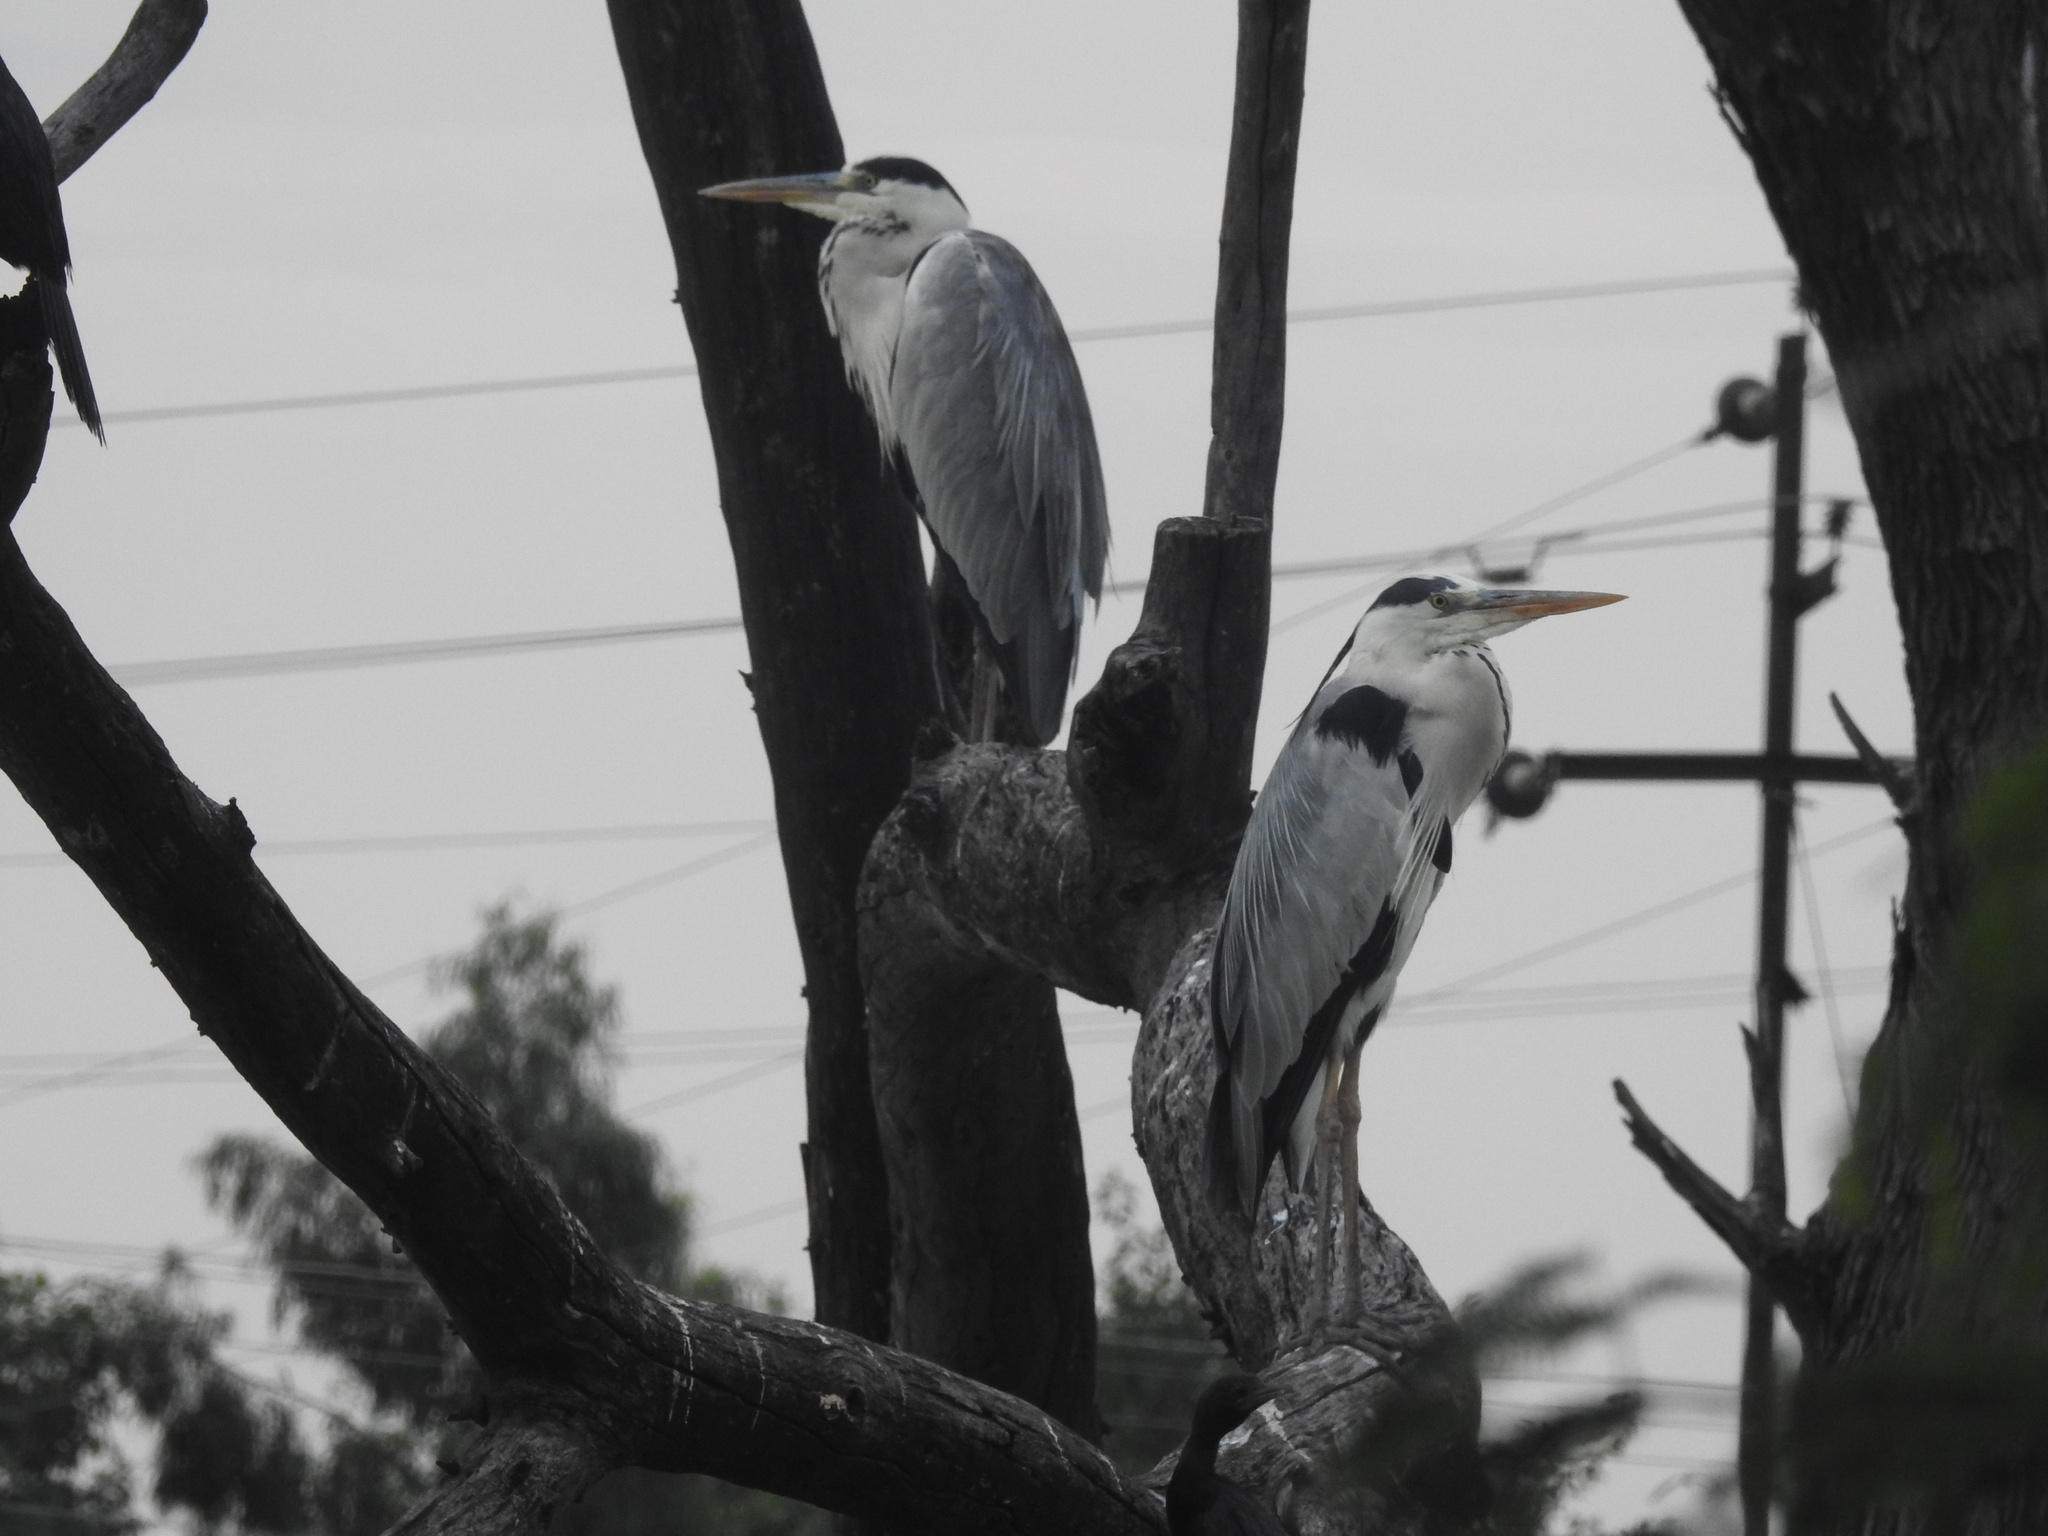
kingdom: Animalia
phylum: Chordata
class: Aves
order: Pelecaniformes
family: Ardeidae
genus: Ardea
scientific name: Ardea cinerea
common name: Grey heron
